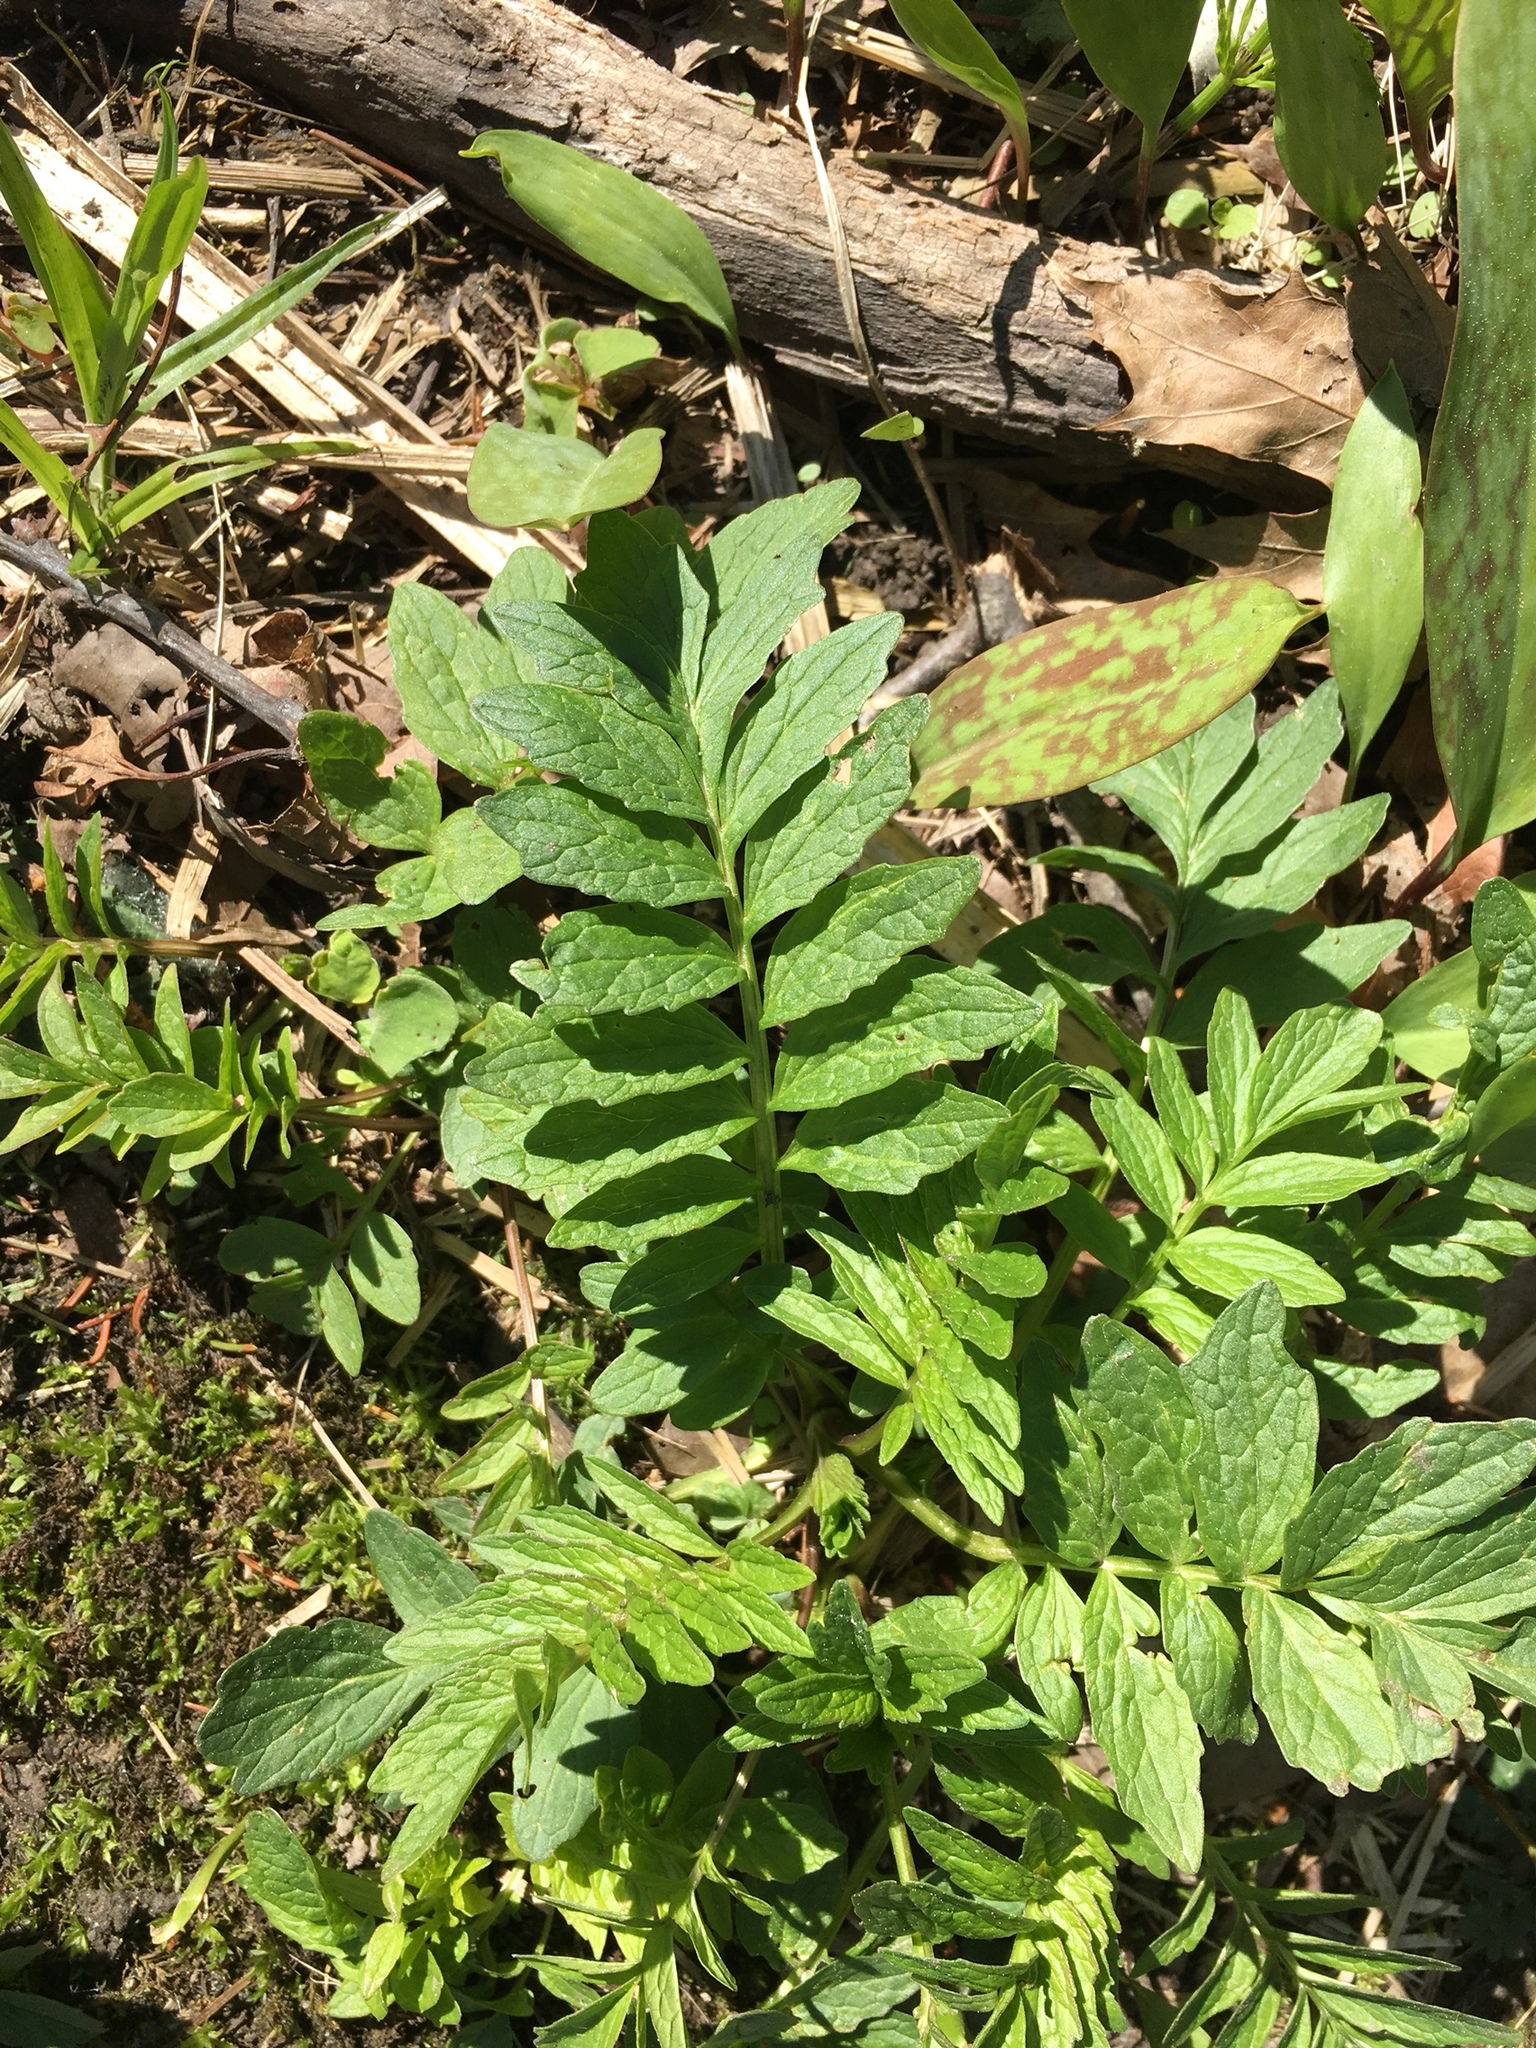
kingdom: Plantae
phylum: Tracheophyta
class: Magnoliopsida
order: Dipsacales
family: Caprifoliaceae
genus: Valeriana
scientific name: Valeriana officinalis
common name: Common valerian
